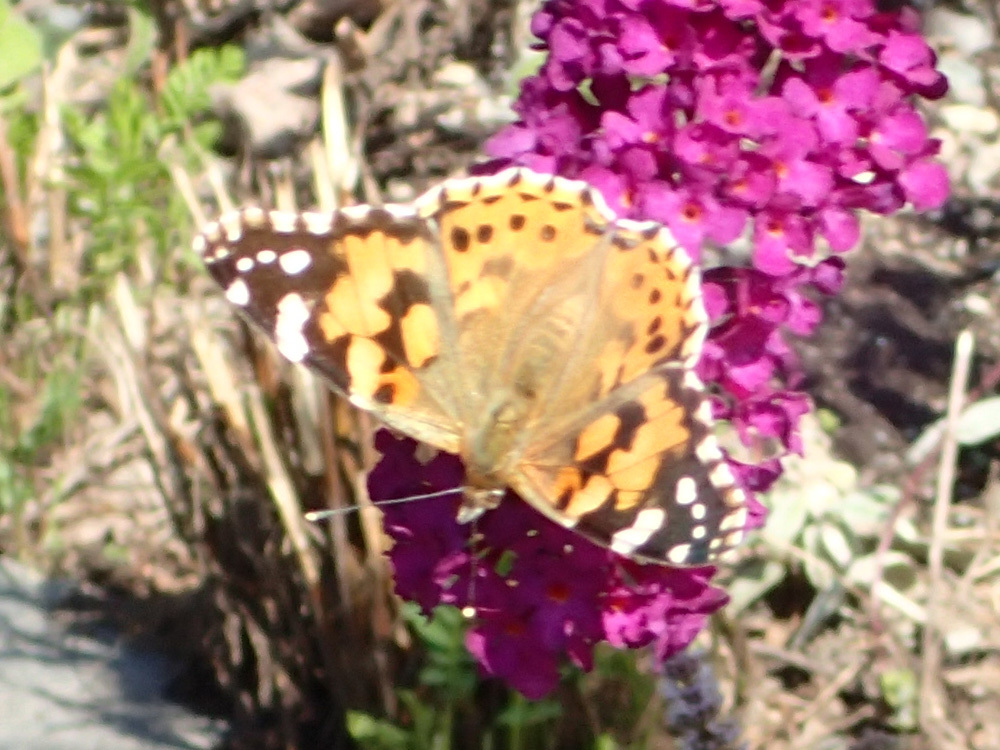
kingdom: Animalia
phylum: Arthropoda
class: Insecta
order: Lepidoptera
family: Nymphalidae
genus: Vanessa
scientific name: Vanessa cardui
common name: Painted lady
